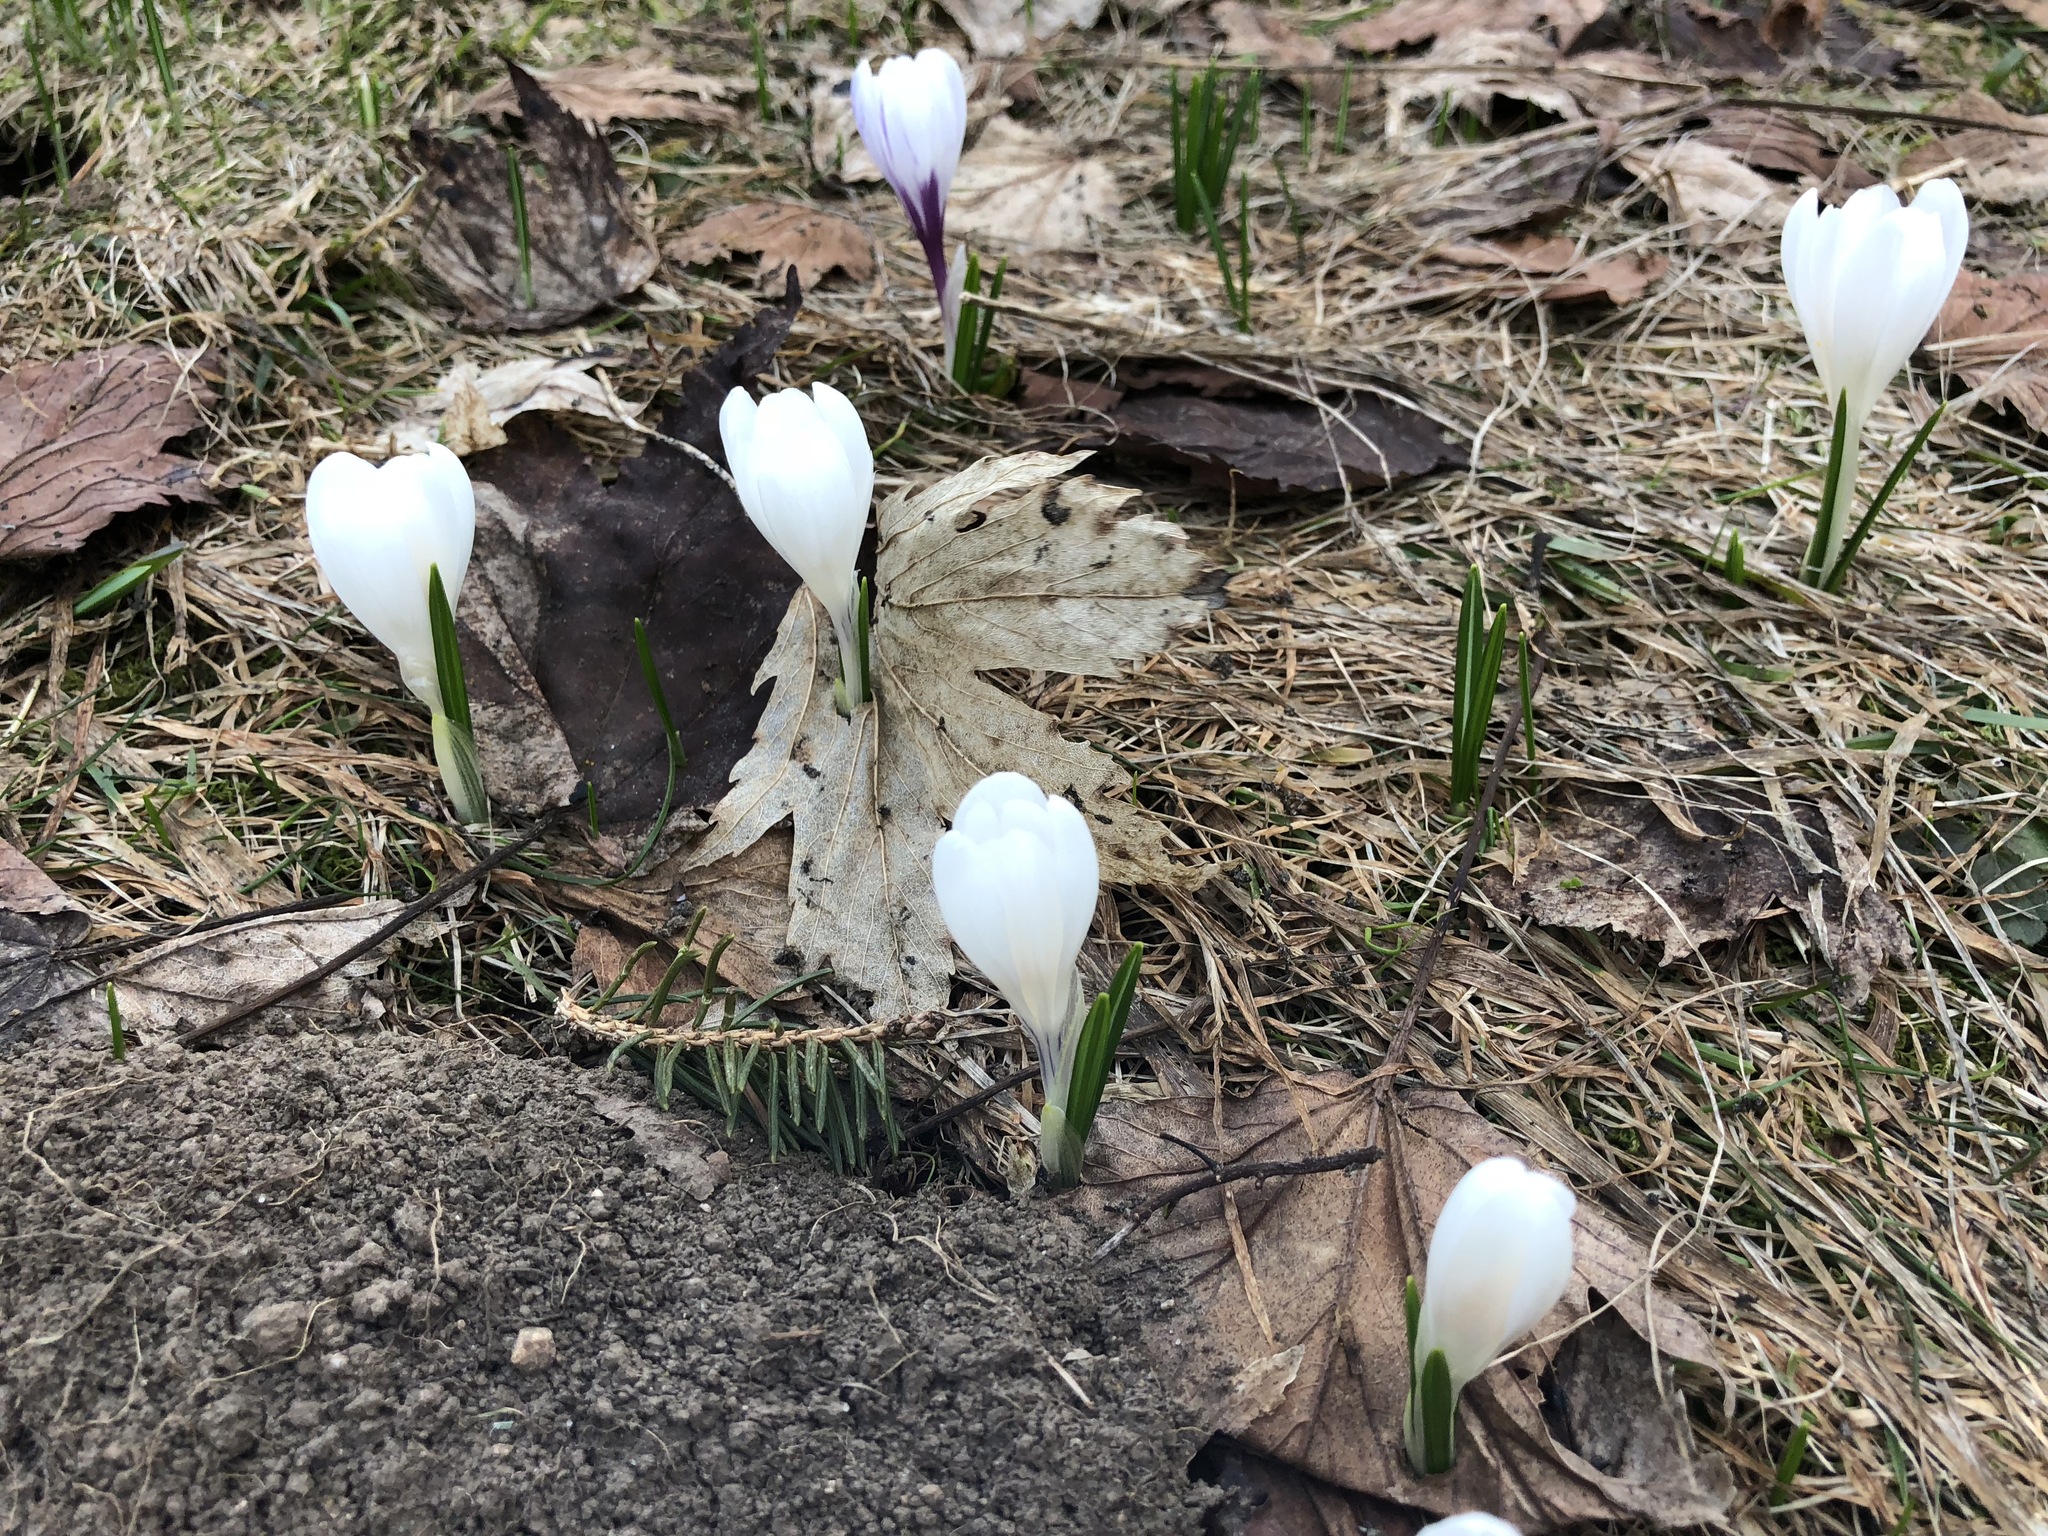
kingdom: Plantae
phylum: Tracheophyta
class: Liliopsida
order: Asparagales
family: Iridaceae
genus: Crocus
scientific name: Crocus vernus
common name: Spring crocus
